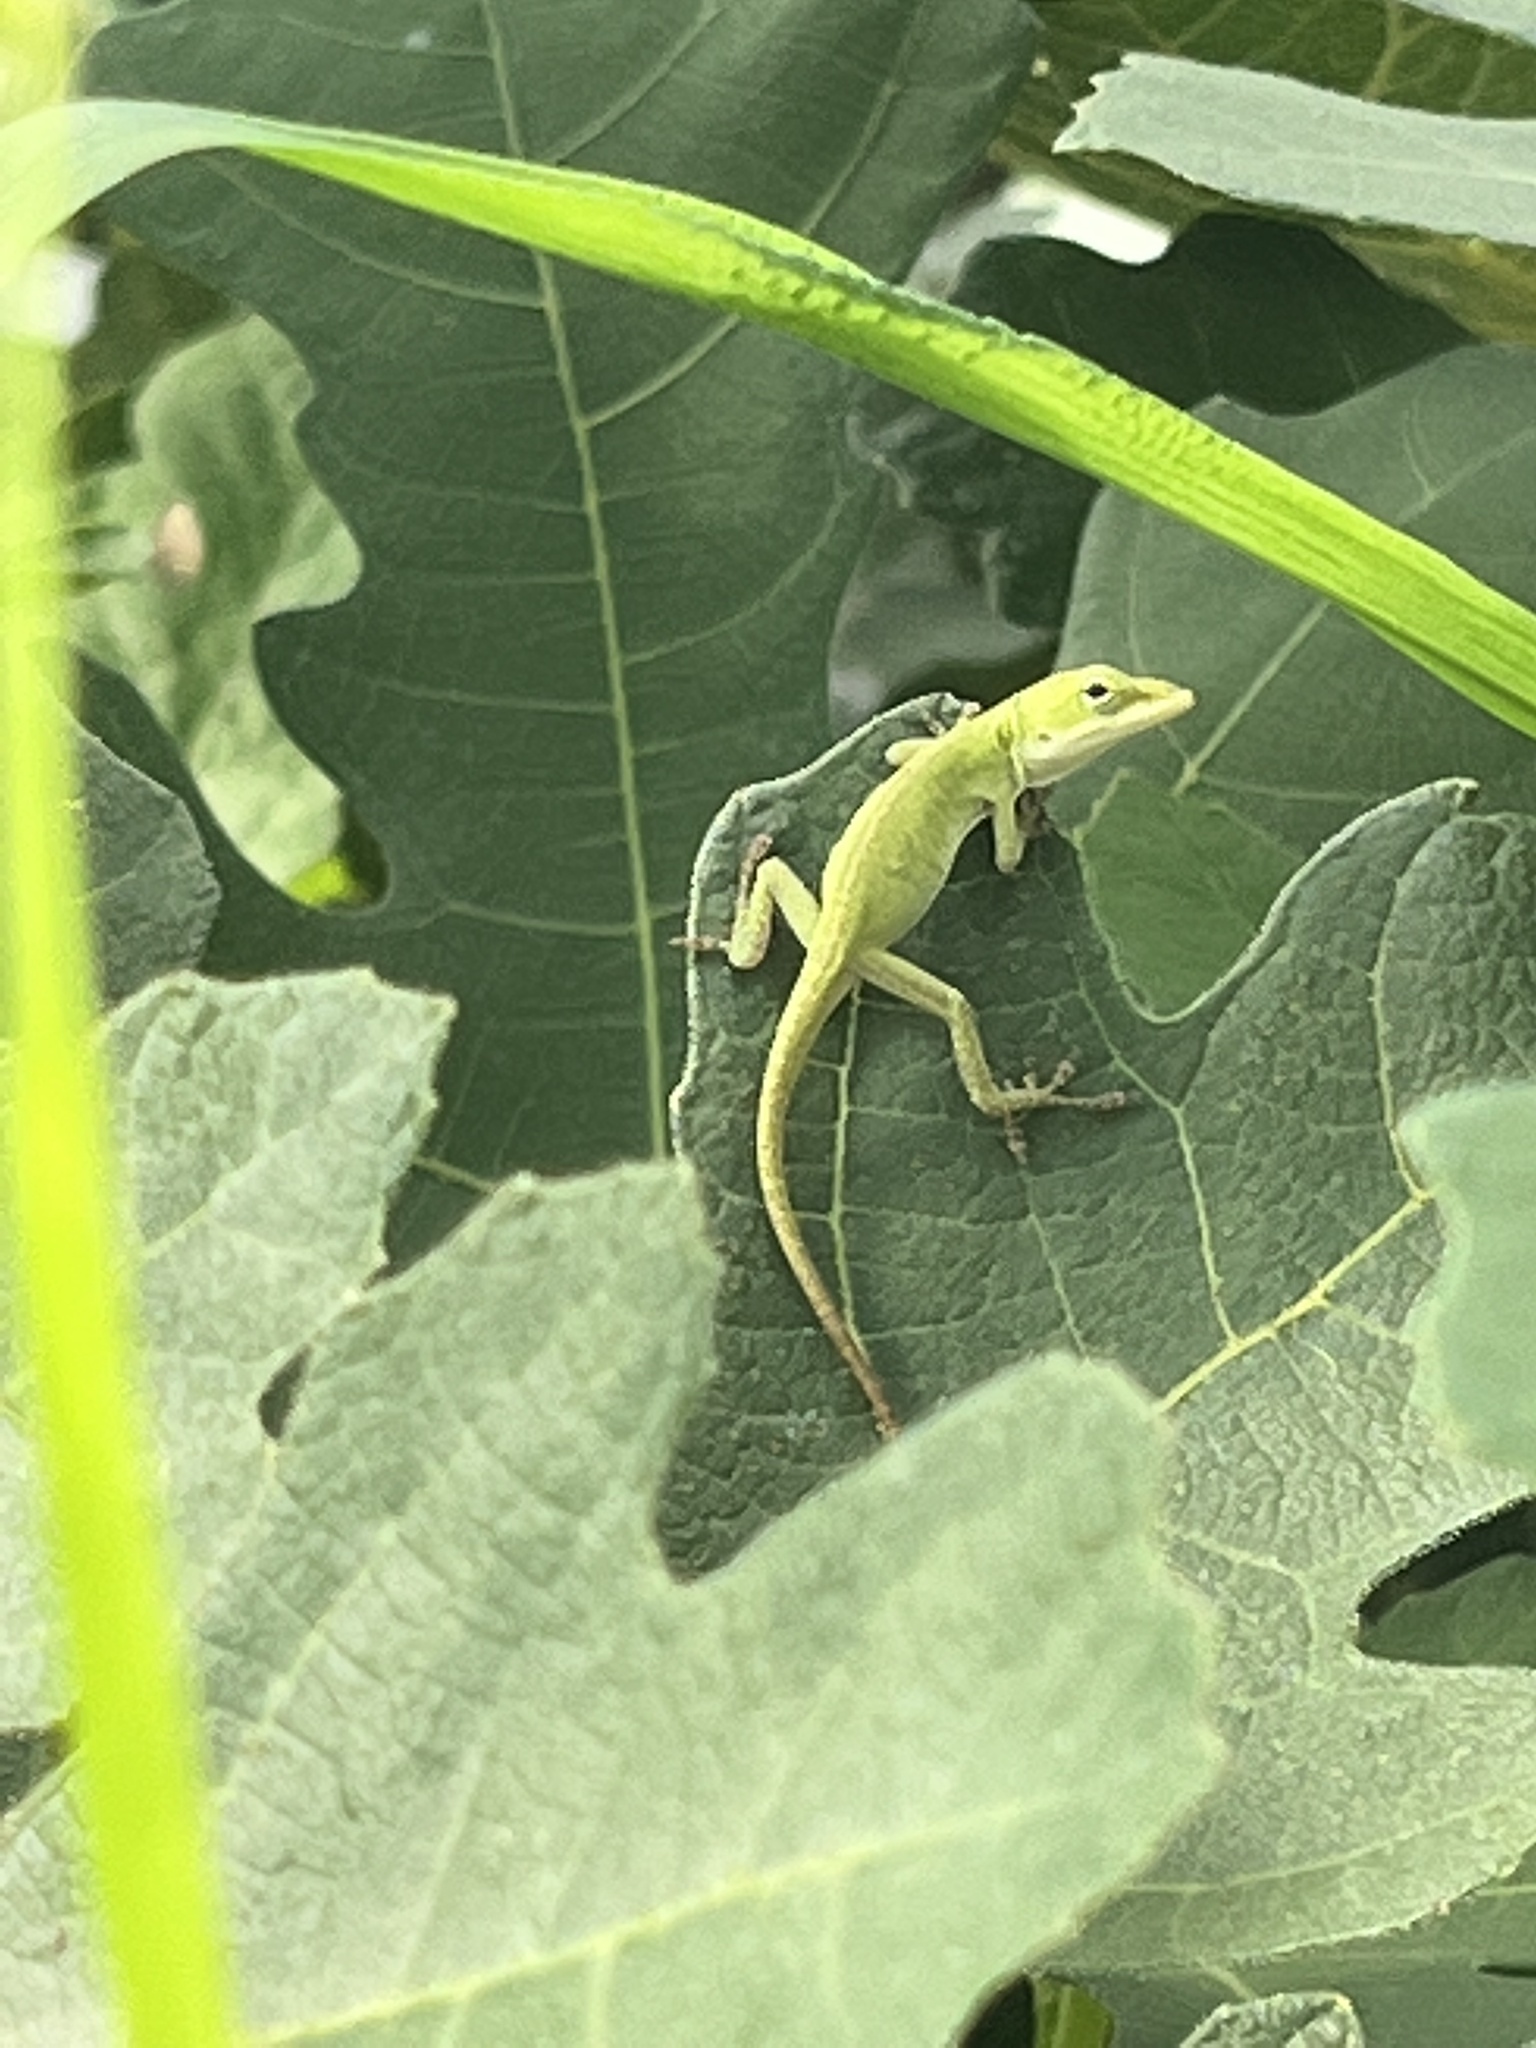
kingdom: Animalia
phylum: Chordata
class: Squamata
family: Dactyloidae
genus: Anolis
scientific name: Anolis carolinensis
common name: Green anole
